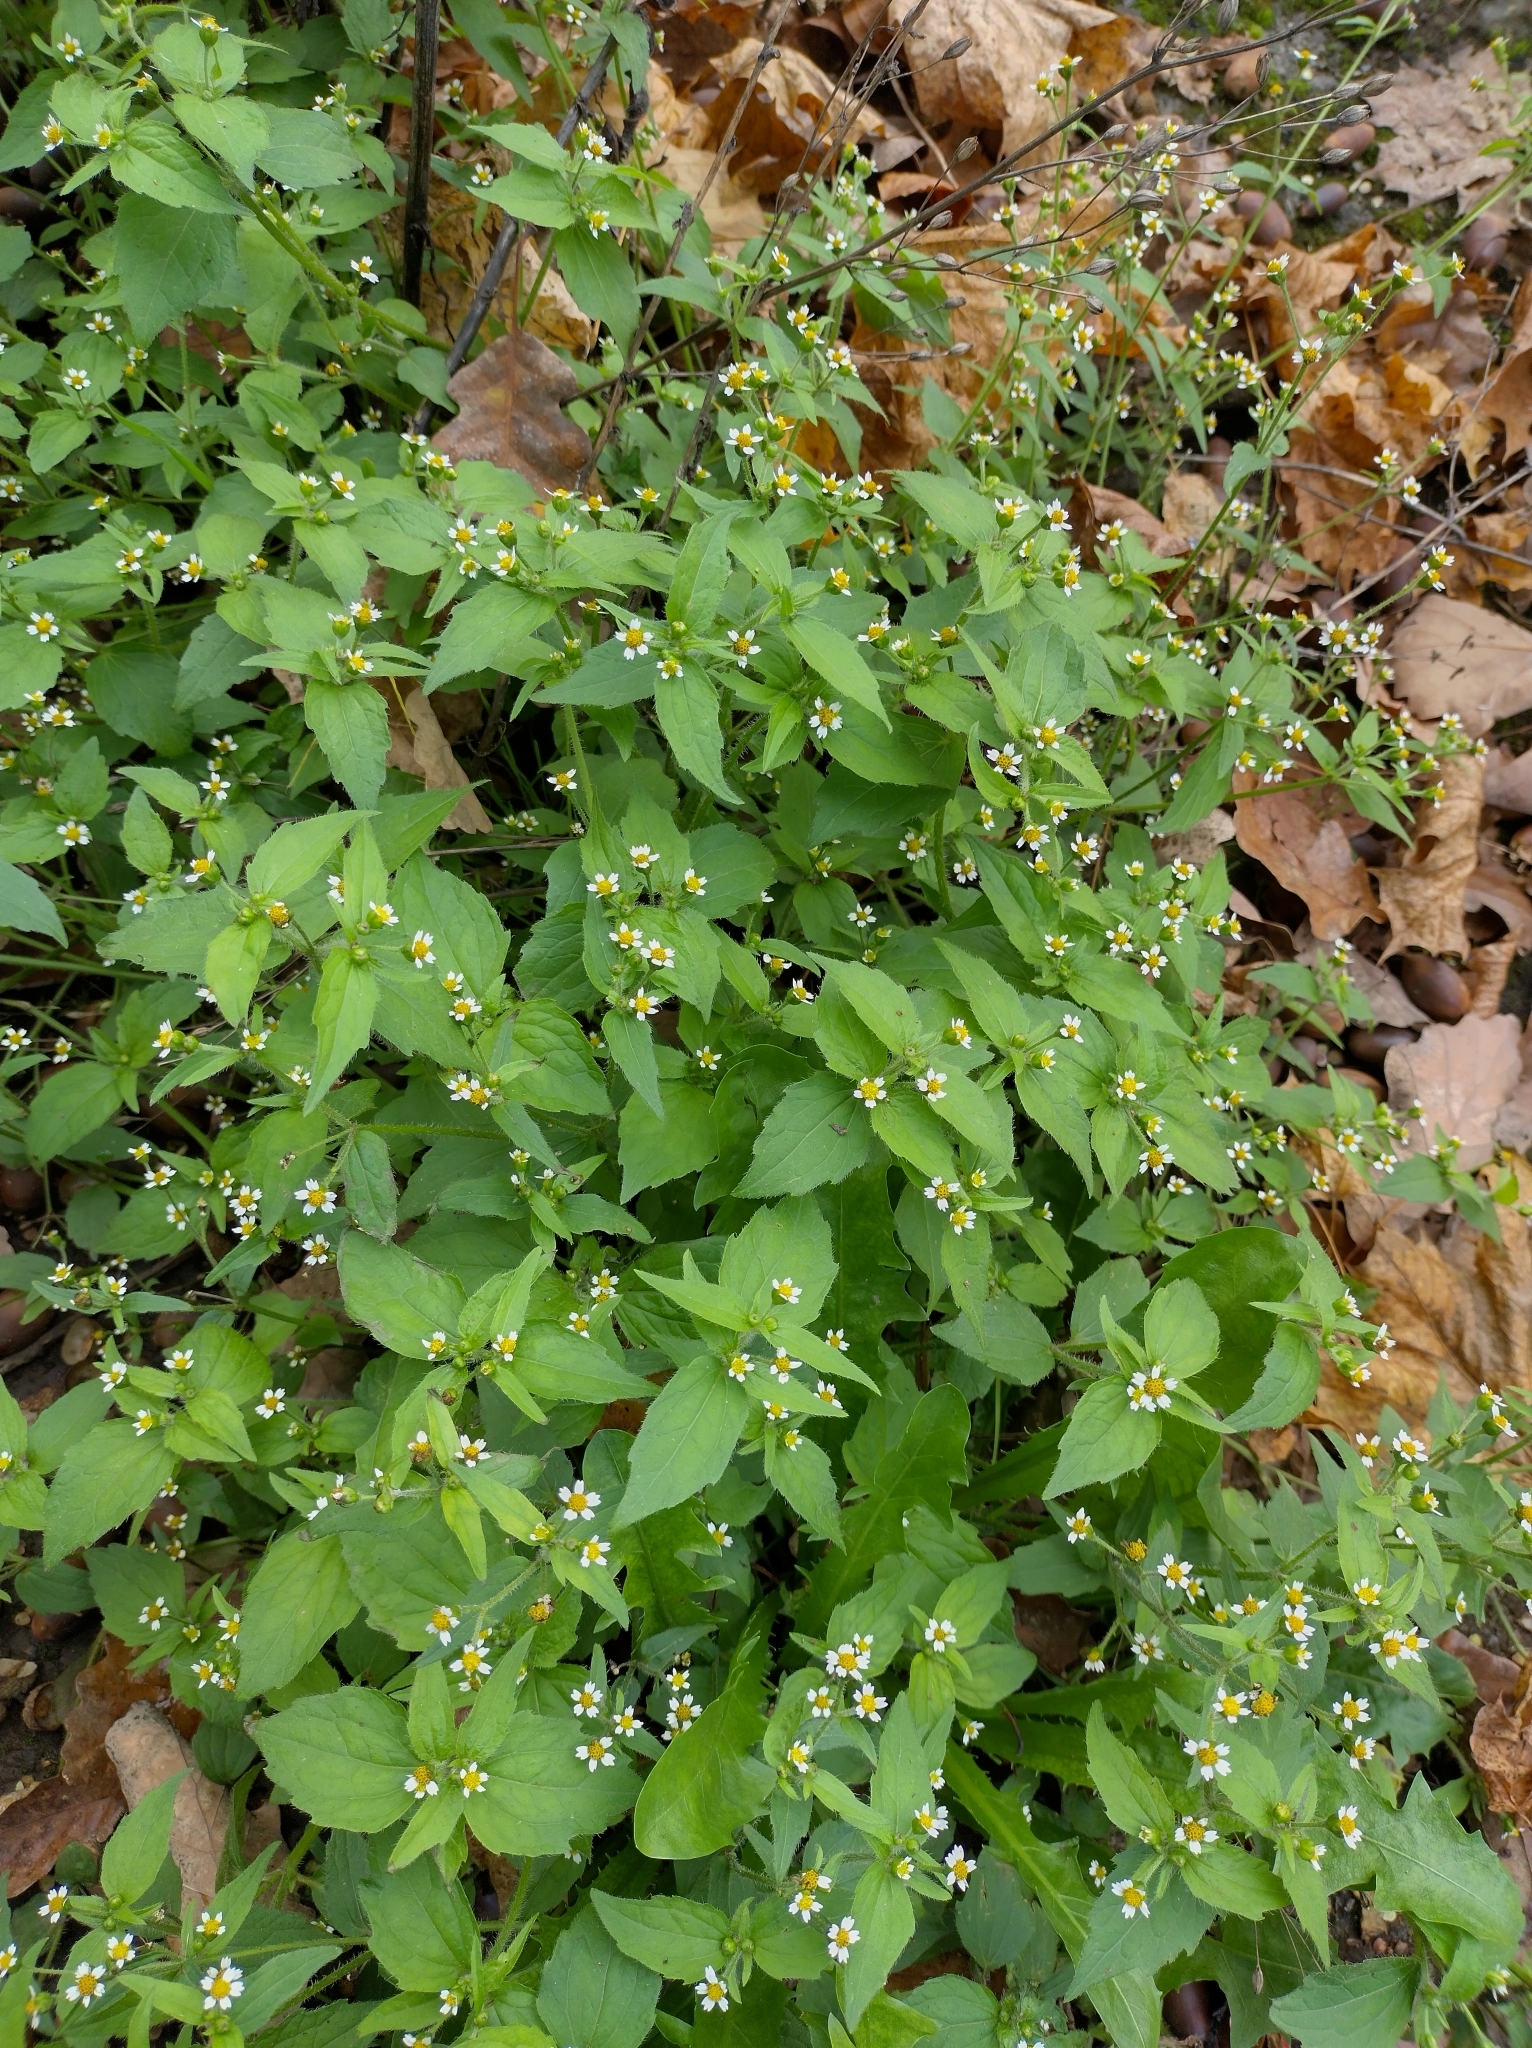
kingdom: Plantae
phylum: Tracheophyta
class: Magnoliopsida
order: Asterales
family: Asteraceae
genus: Galinsoga
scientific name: Galinsoga quadriradiata
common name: Shaggy soldier
